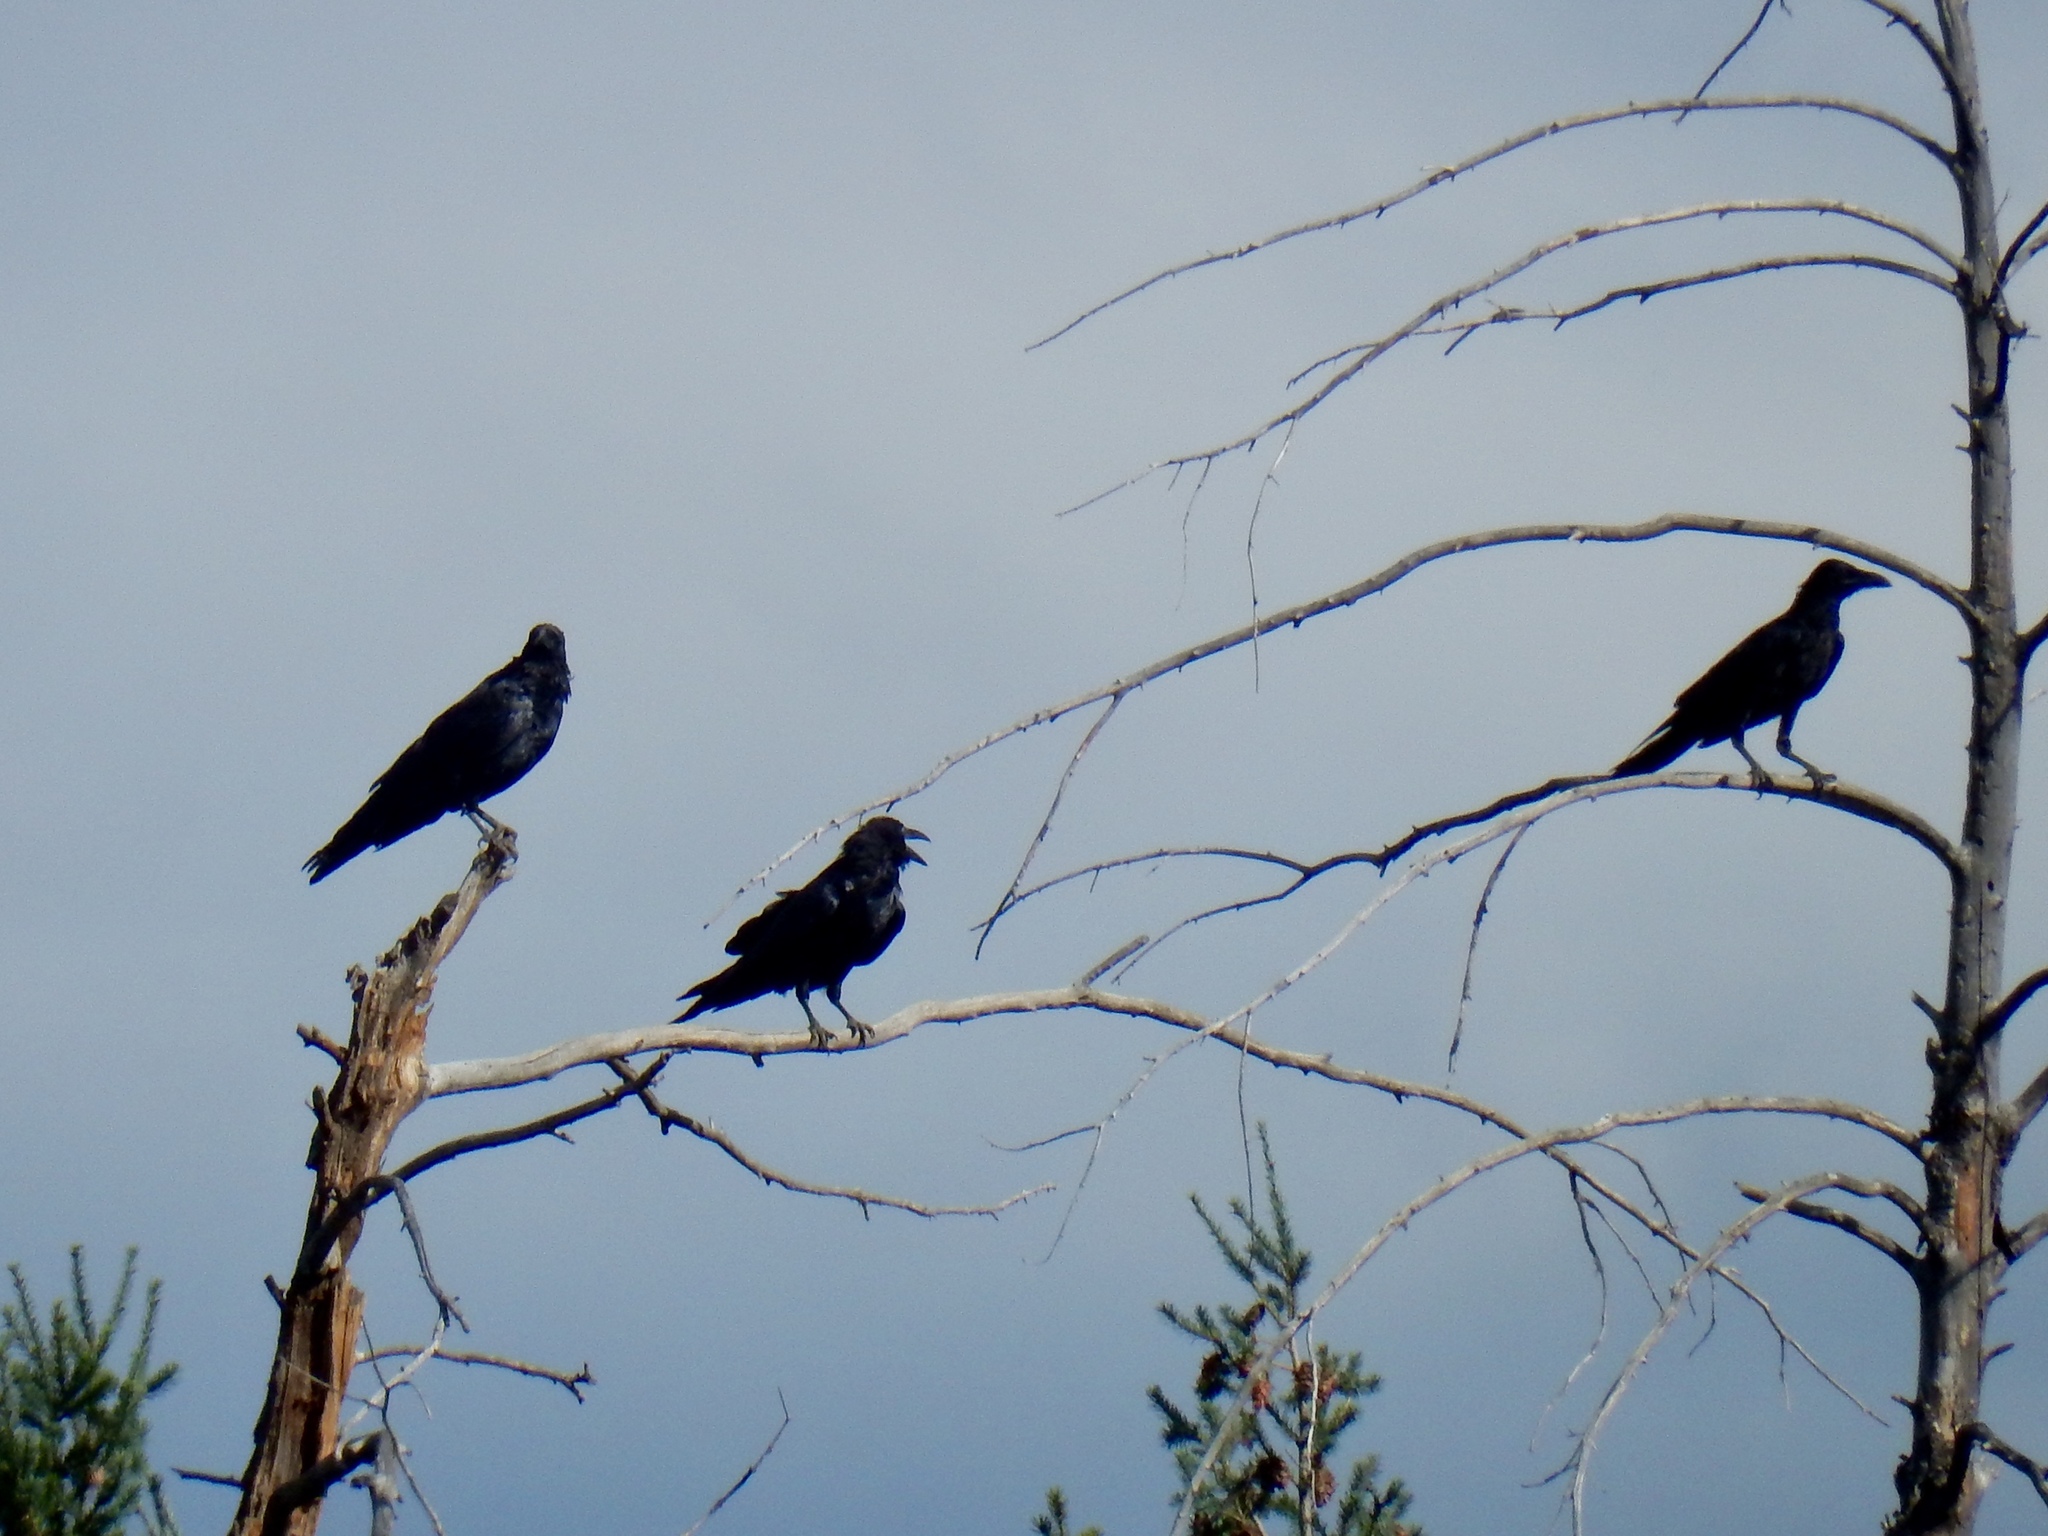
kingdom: Animalia
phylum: Chordata
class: Aves
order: Passeriformes
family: Corvidae
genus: Corvus
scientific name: Corvus corax
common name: Common raven
